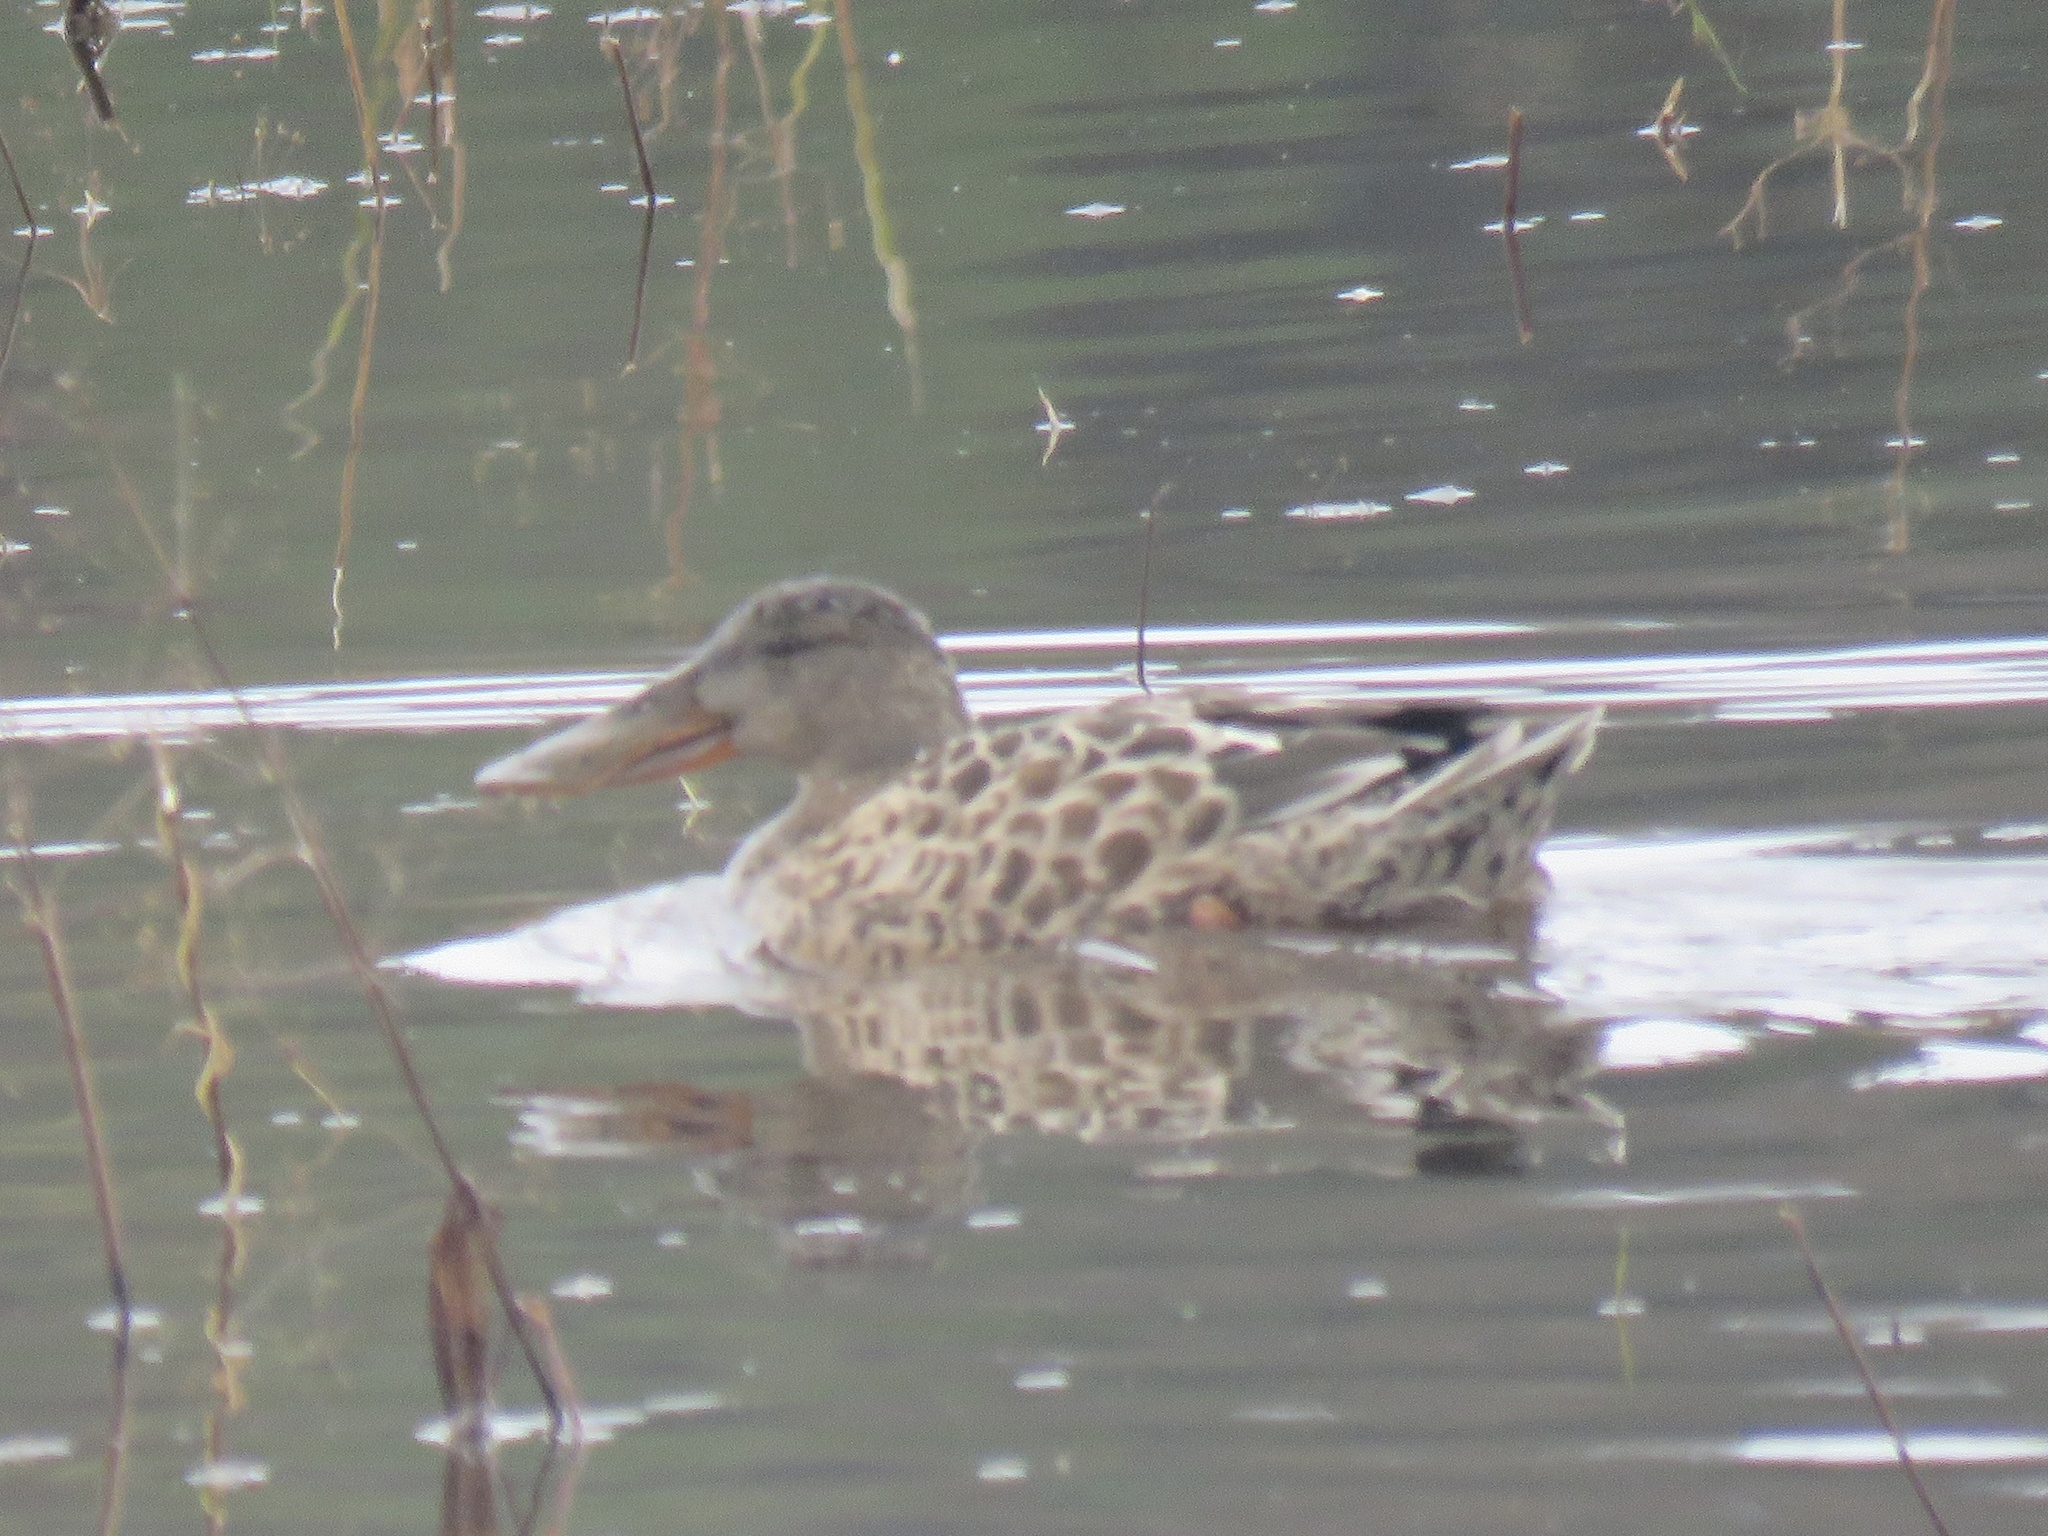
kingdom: Animalia
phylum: Chordata
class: Aves
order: Anseriformes
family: Anatidae
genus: Spatula
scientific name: Spatula clypeata
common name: Northern shoveler
